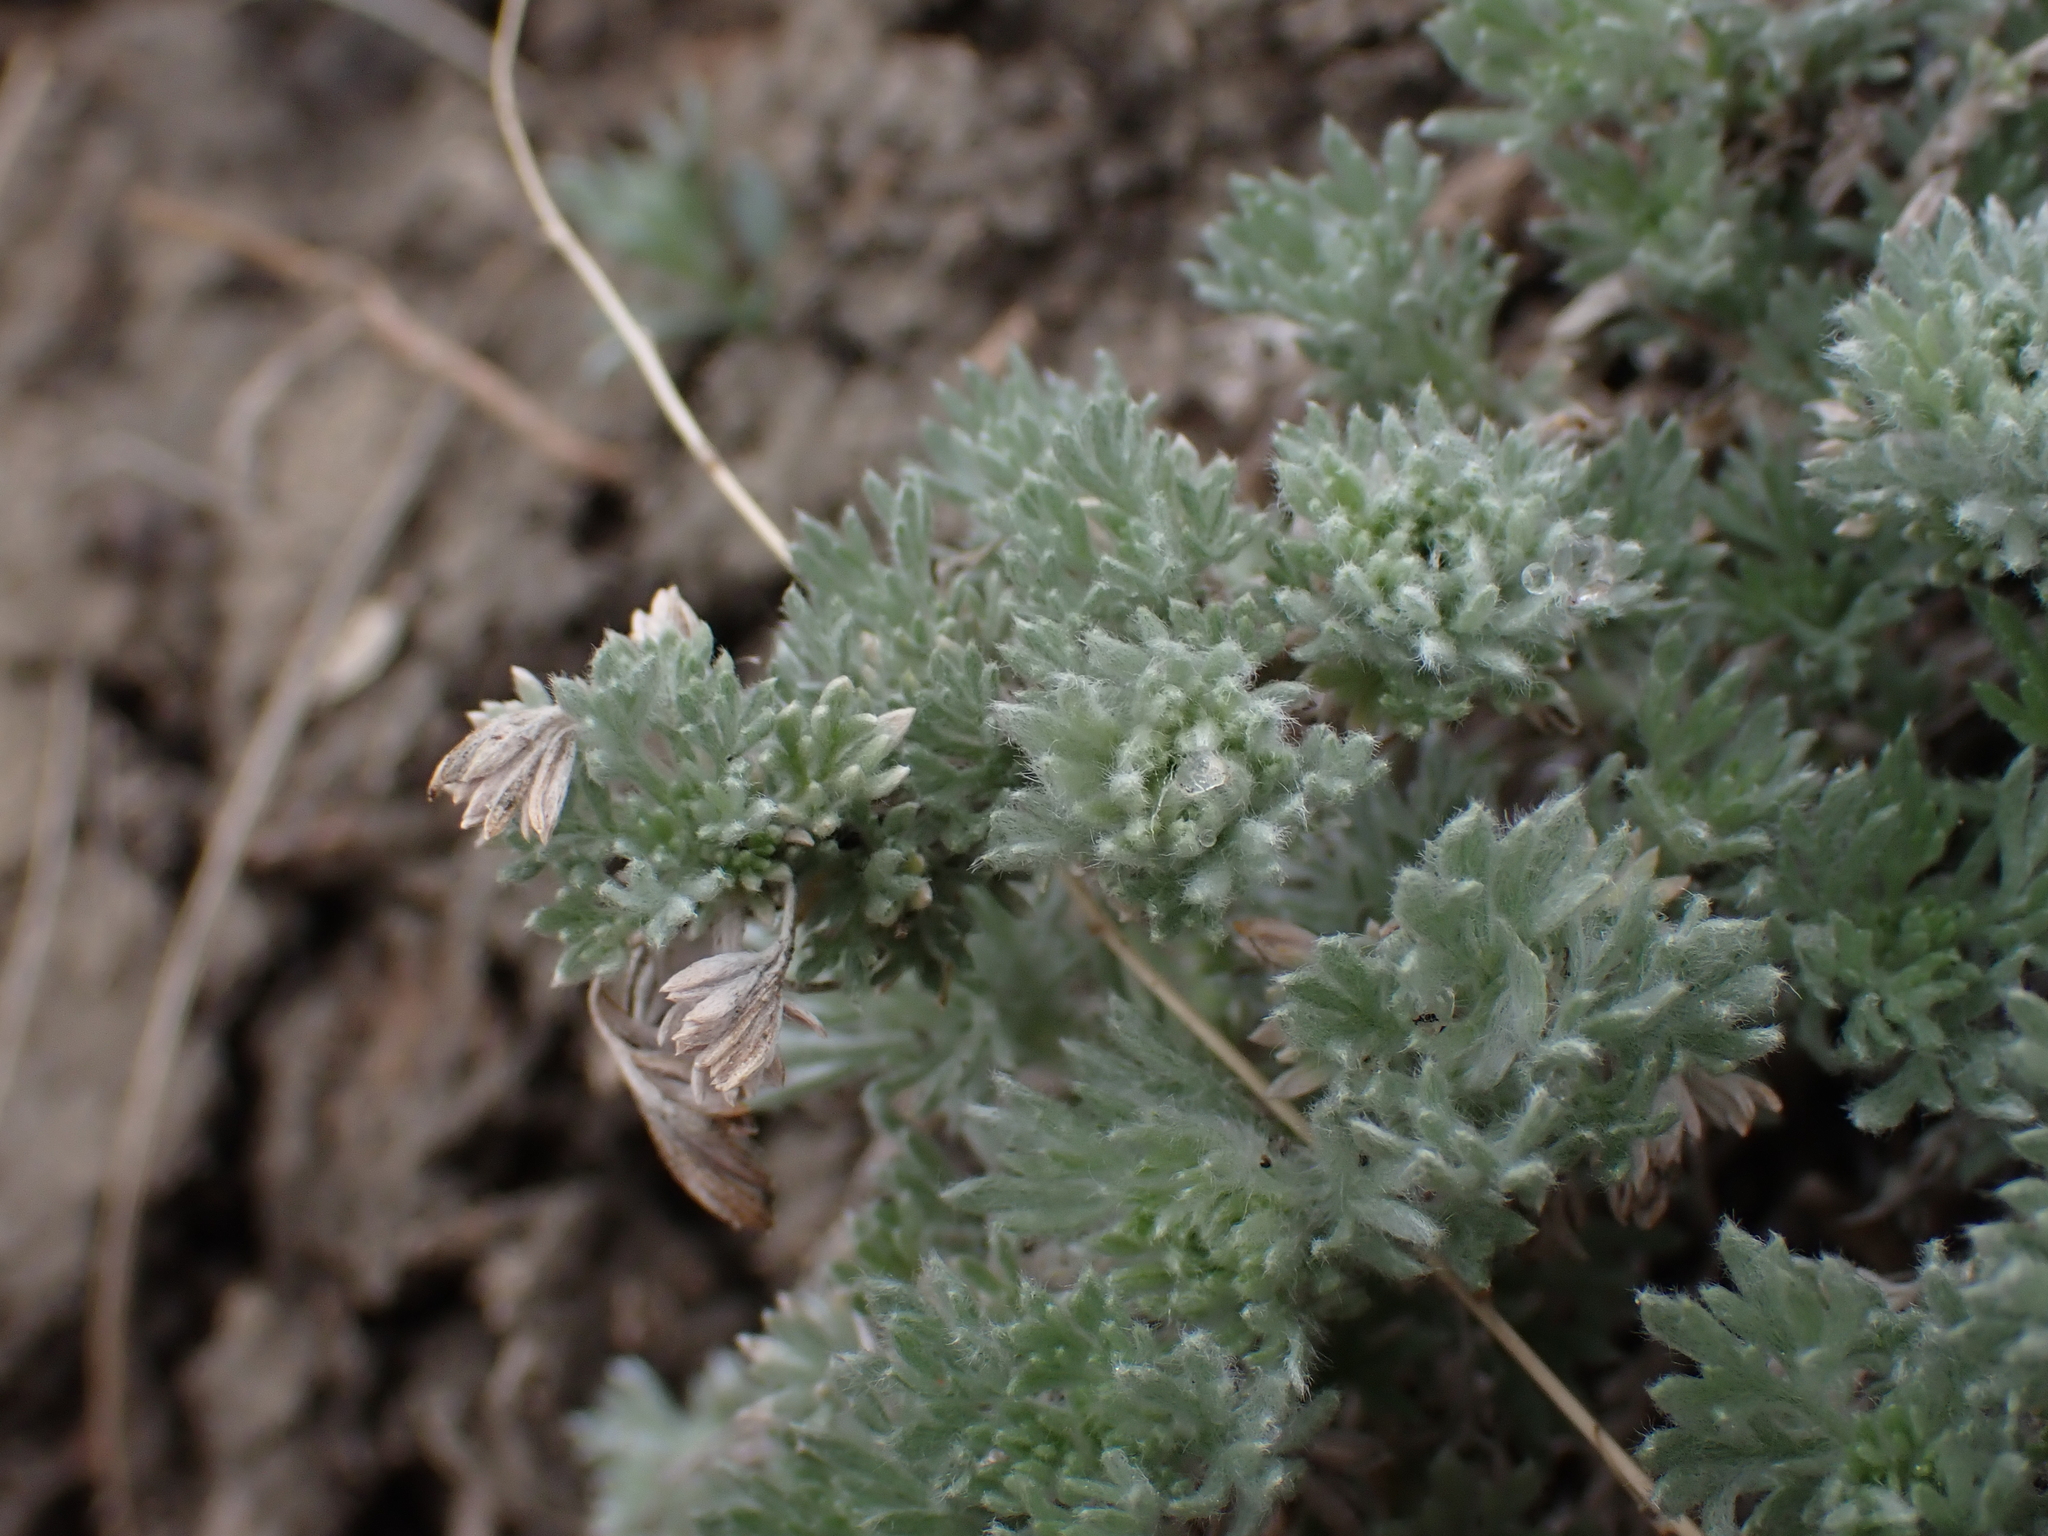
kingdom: Plantae
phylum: Tracheophyta
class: Magnoliopsida
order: Asterales
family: Asteraceae
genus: Artemisia
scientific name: Artemisia frigida
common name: Prairie sagewort
